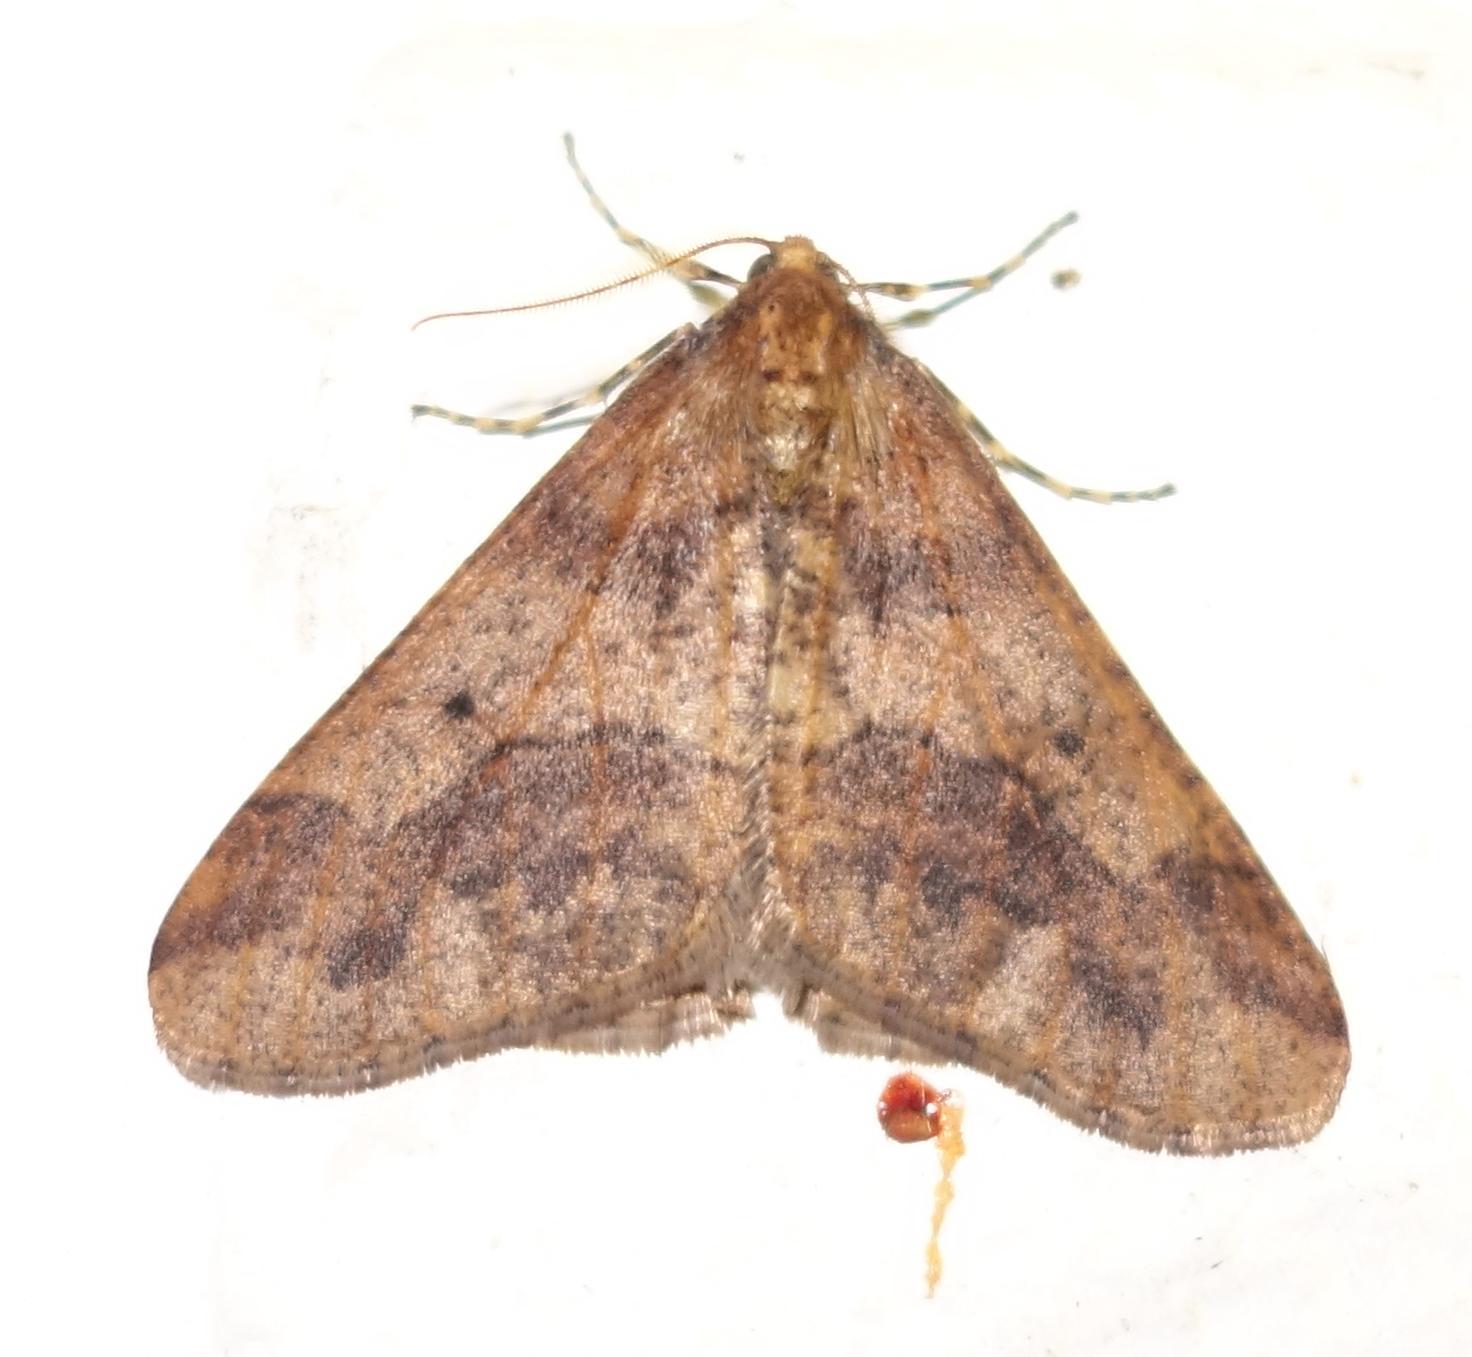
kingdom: Animalia
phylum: Arthropoda
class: Insecta
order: Lepidoptera
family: Geometridae
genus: Erannis
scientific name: Erannis defoliaria
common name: Mottled umber
